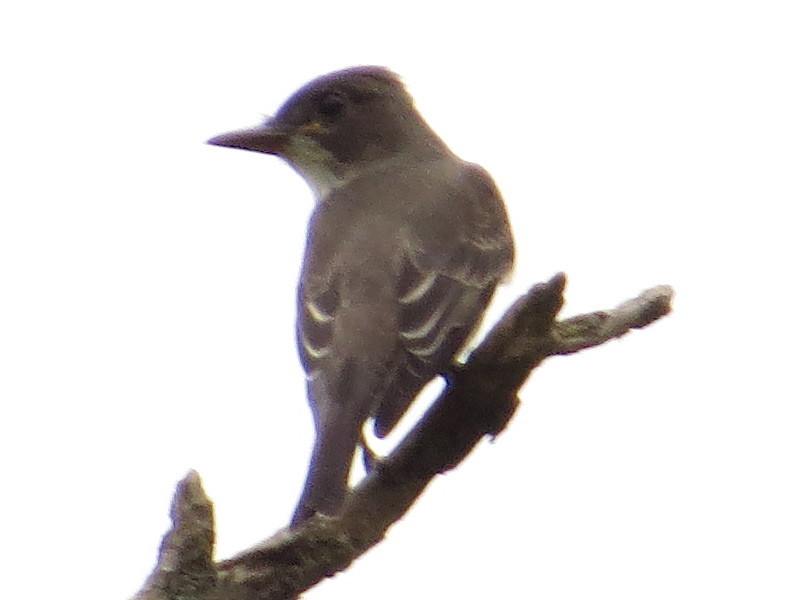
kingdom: Animalia
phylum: Chordata
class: Aves
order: Passeriformes
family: Tyrannidae
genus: Contopus
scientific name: Contopus cooperi
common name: Olive-sided flycatcher
